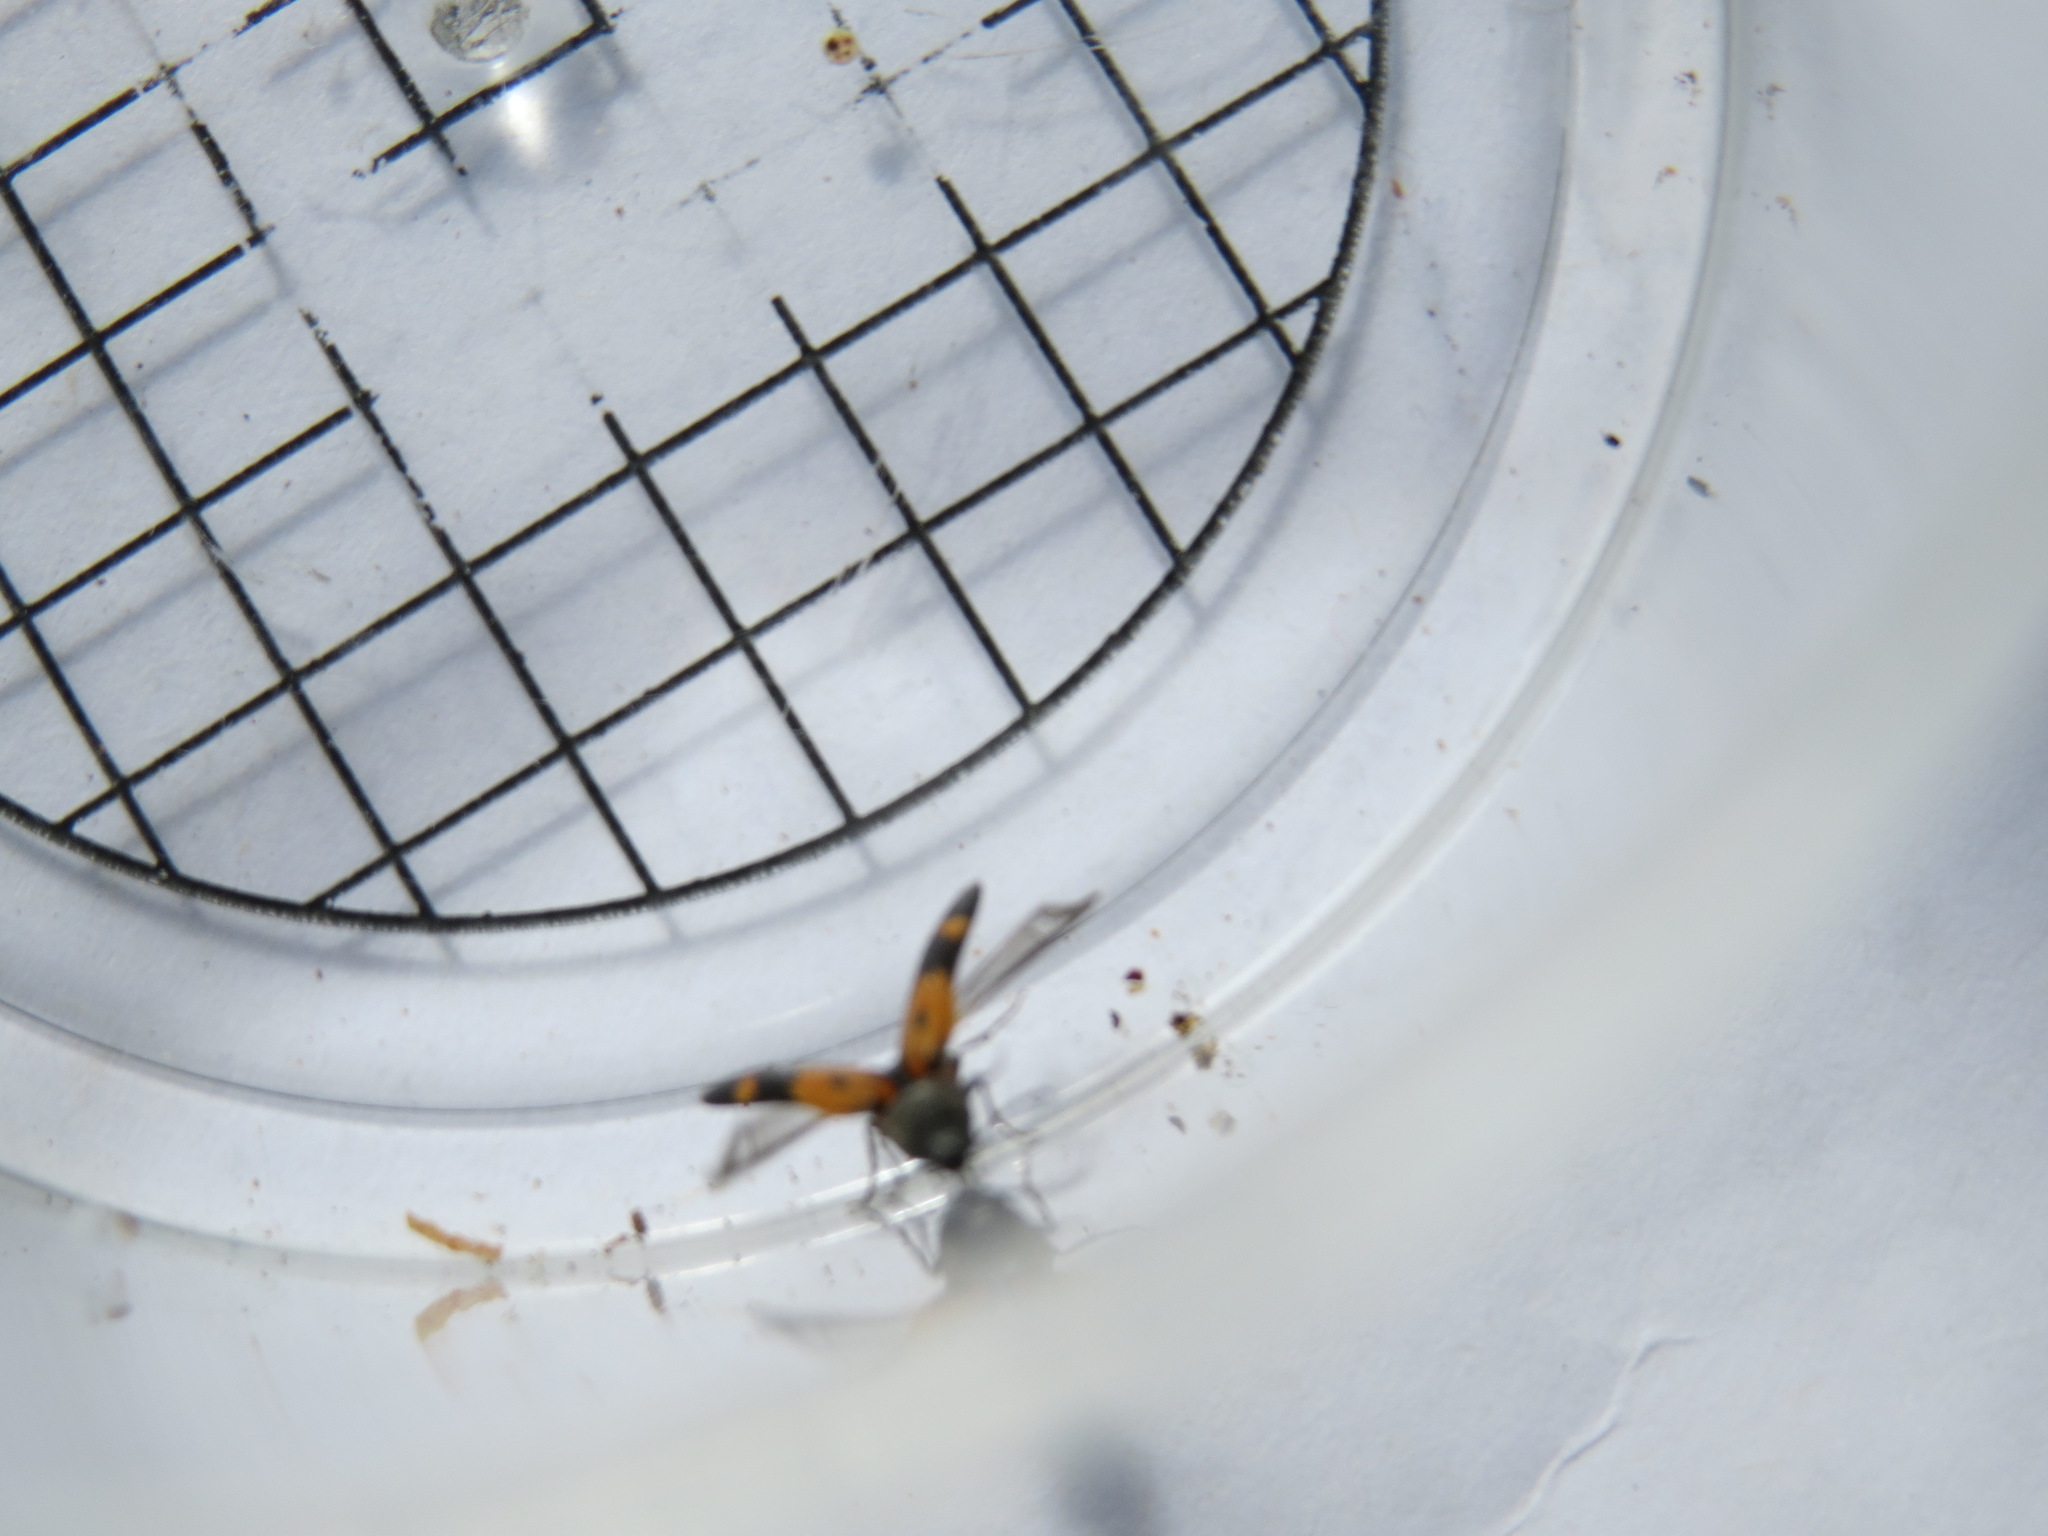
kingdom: Animalia
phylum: Arthropoda
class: Insecta
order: Coleoptera
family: Elateridae
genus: Megapenthes
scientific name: Megapenthes
